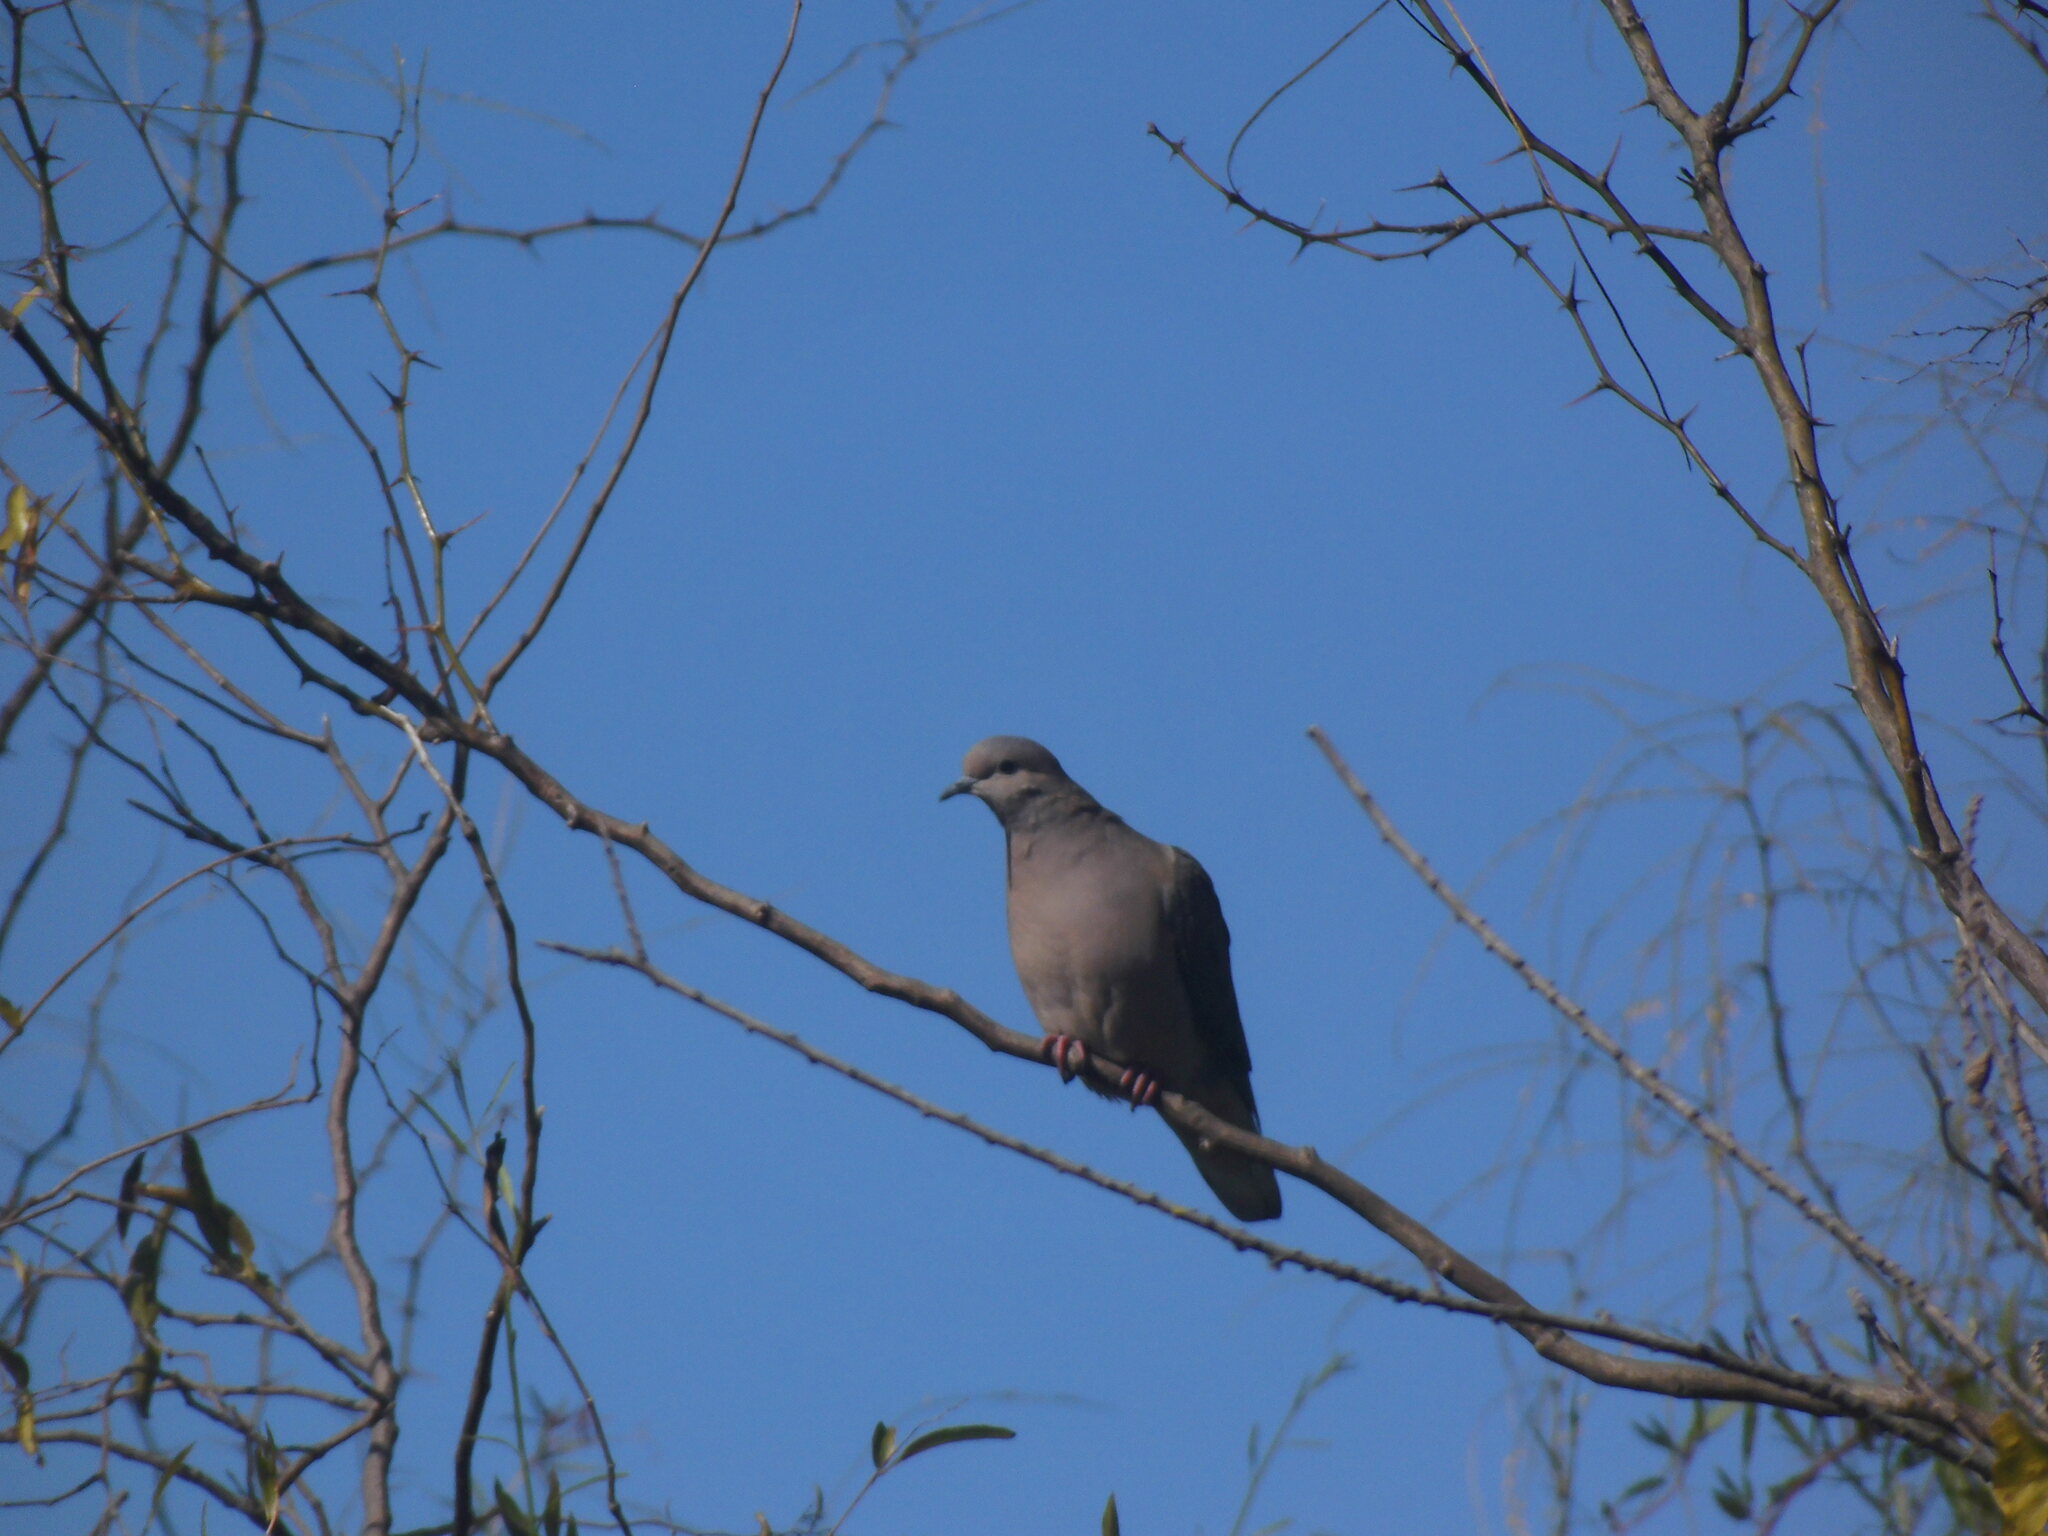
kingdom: Animalia
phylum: Chordata
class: Aves
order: Columbiformes
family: Columbidae
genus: Zenaida
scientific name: Zenaida auriculata
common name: Eared dove
